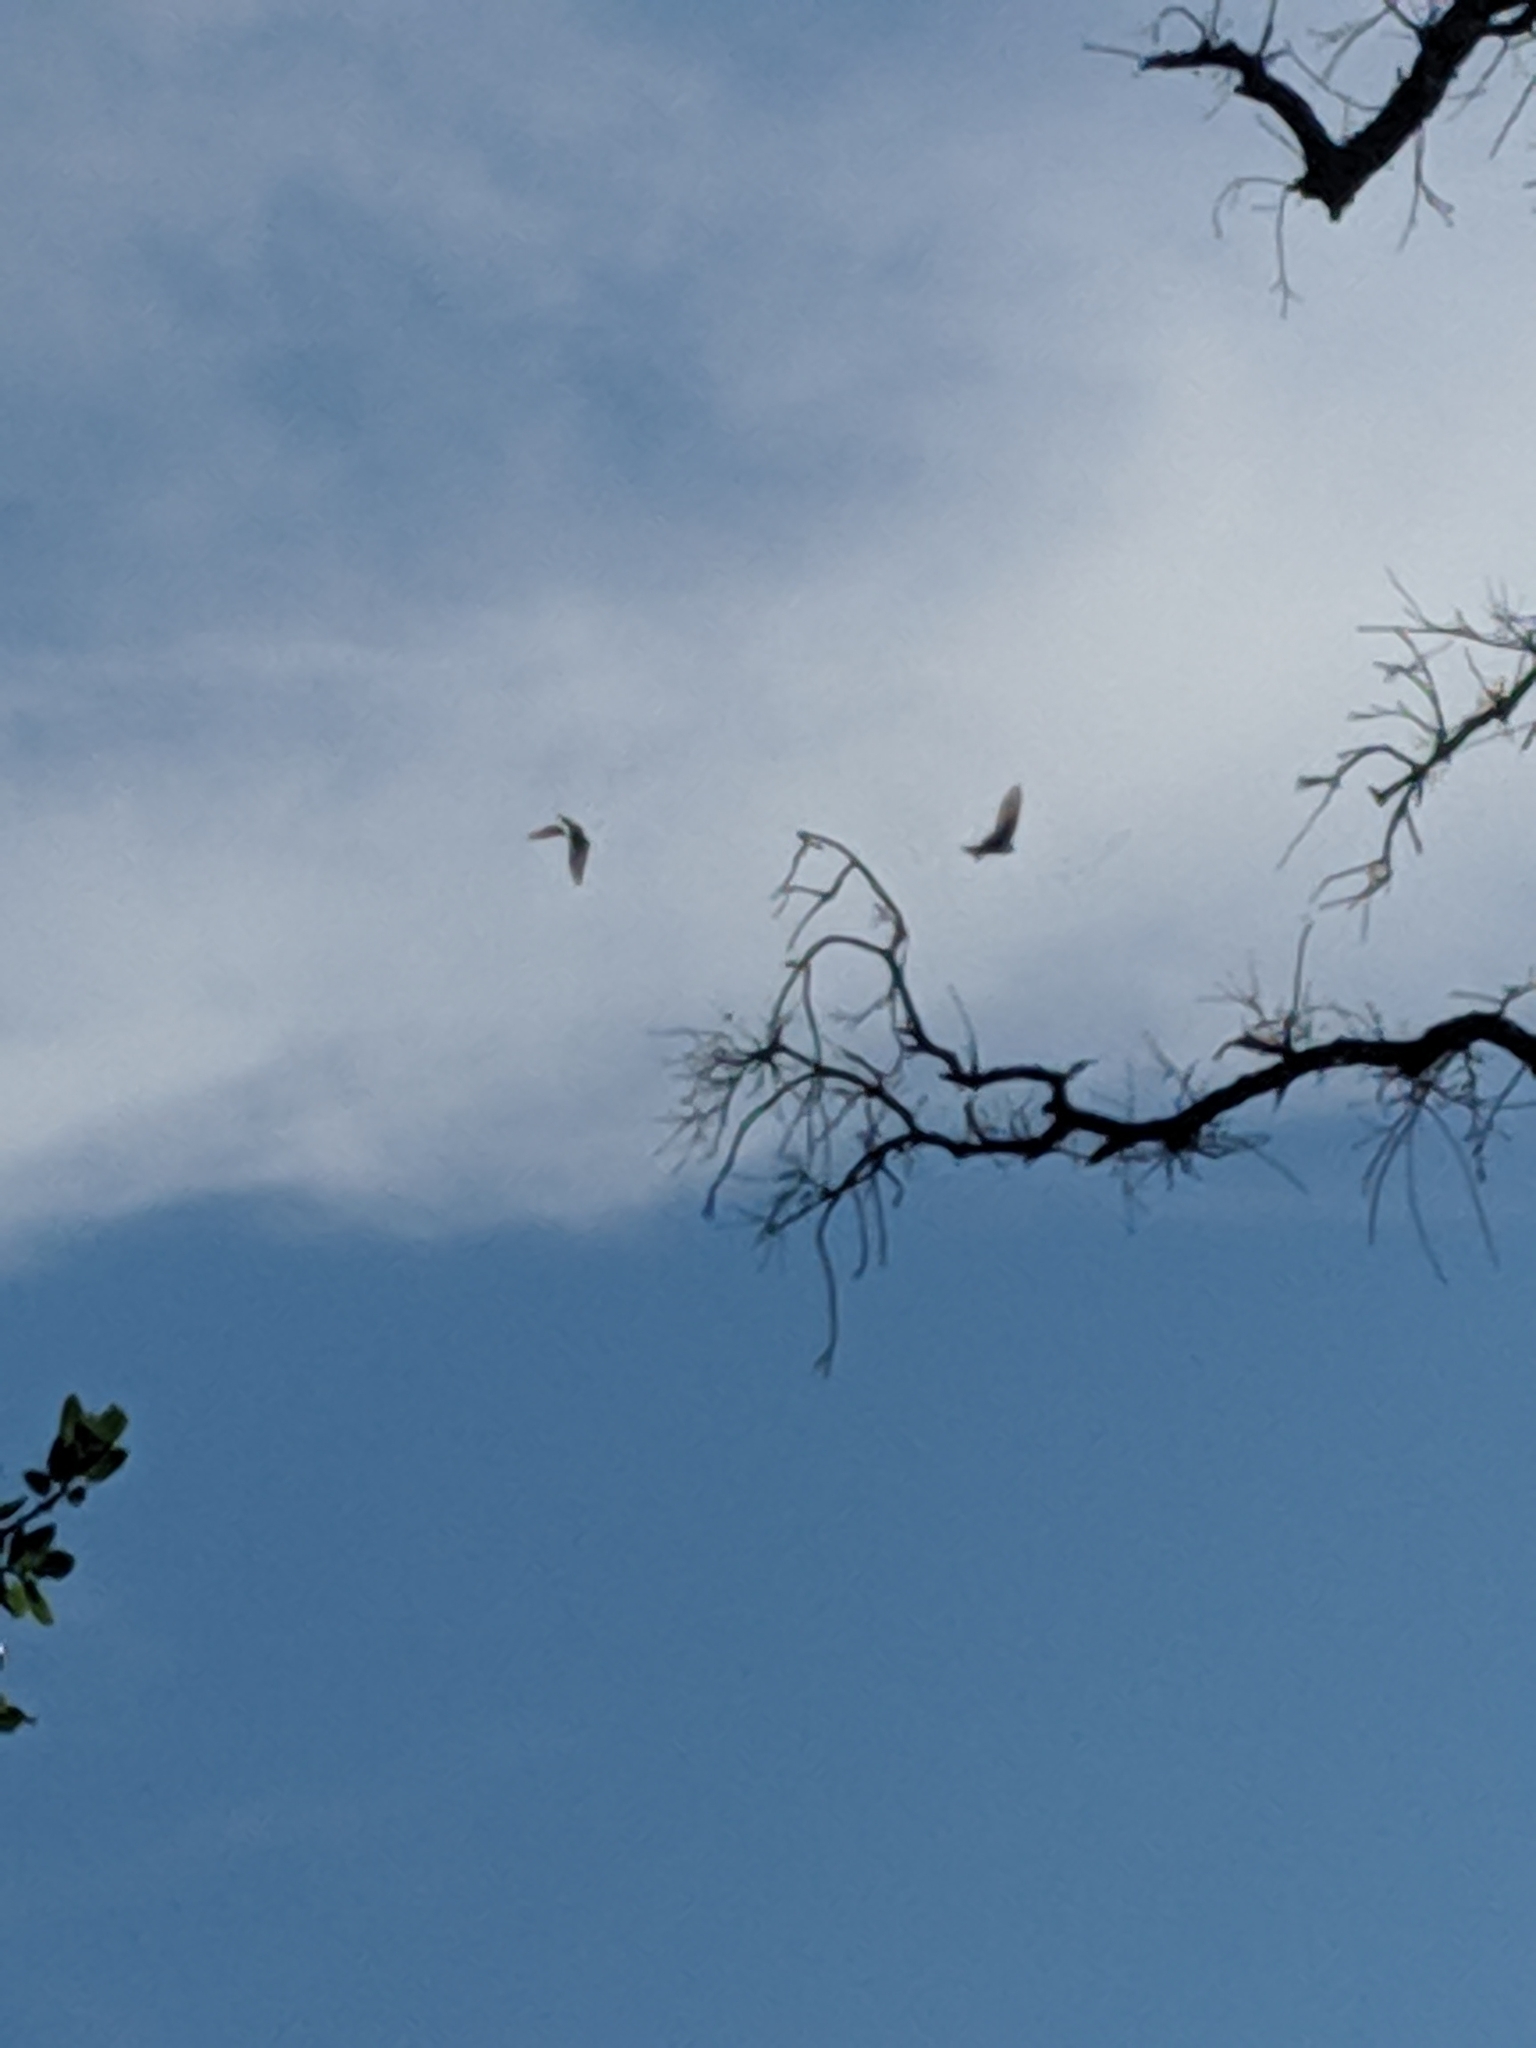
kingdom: Animalia
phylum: Chordata
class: Aves
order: Passeriformes
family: Hirundinidae
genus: Tachycineta
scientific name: Tachycineta bicolor
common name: Tree swallow
